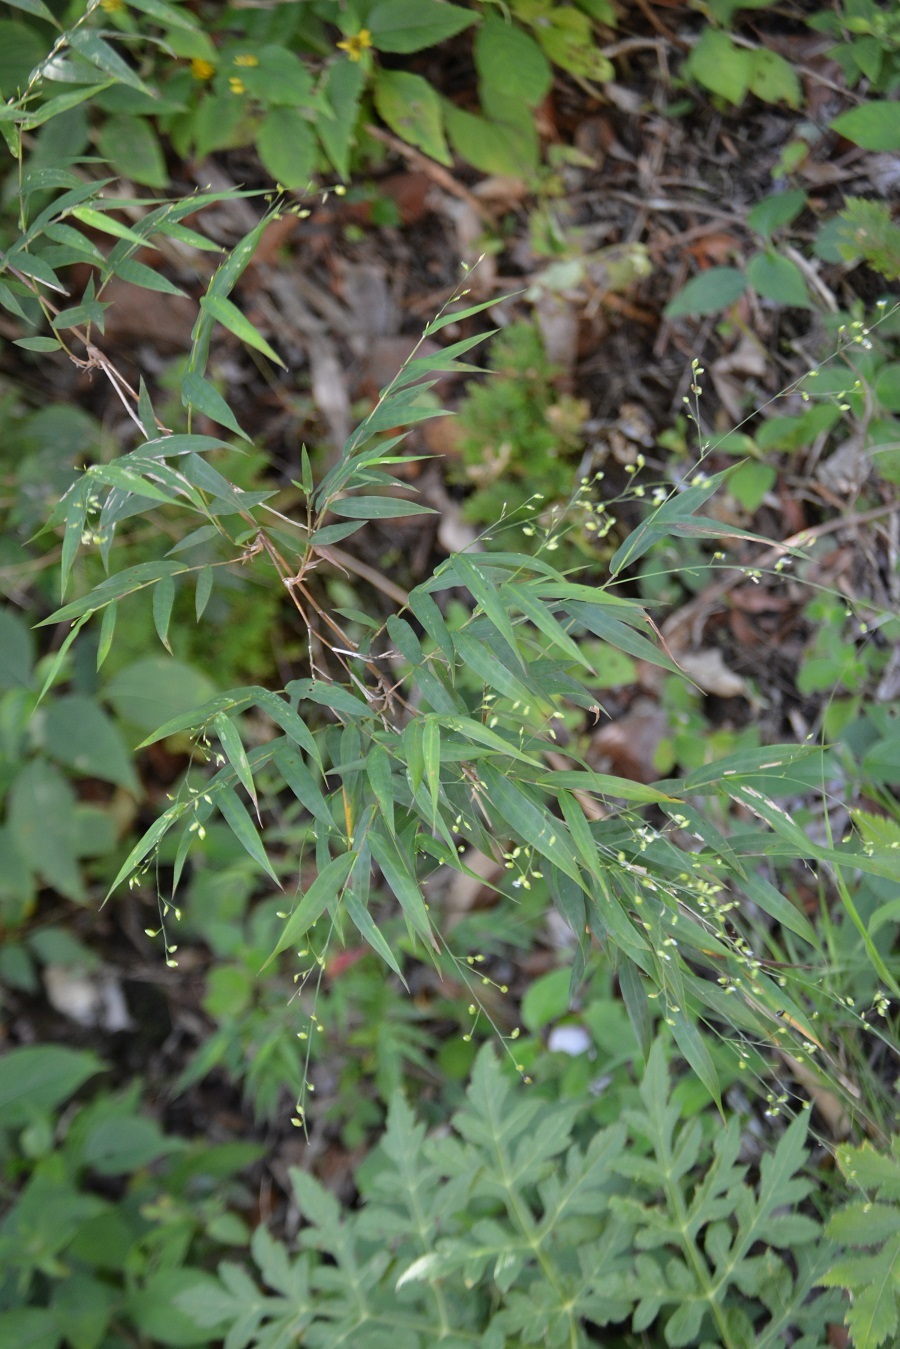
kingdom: Plantae
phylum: Tracheophyta
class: Liliopsida
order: Poales
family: Poaceae
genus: Lasiacis
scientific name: Lasiacis nigra
